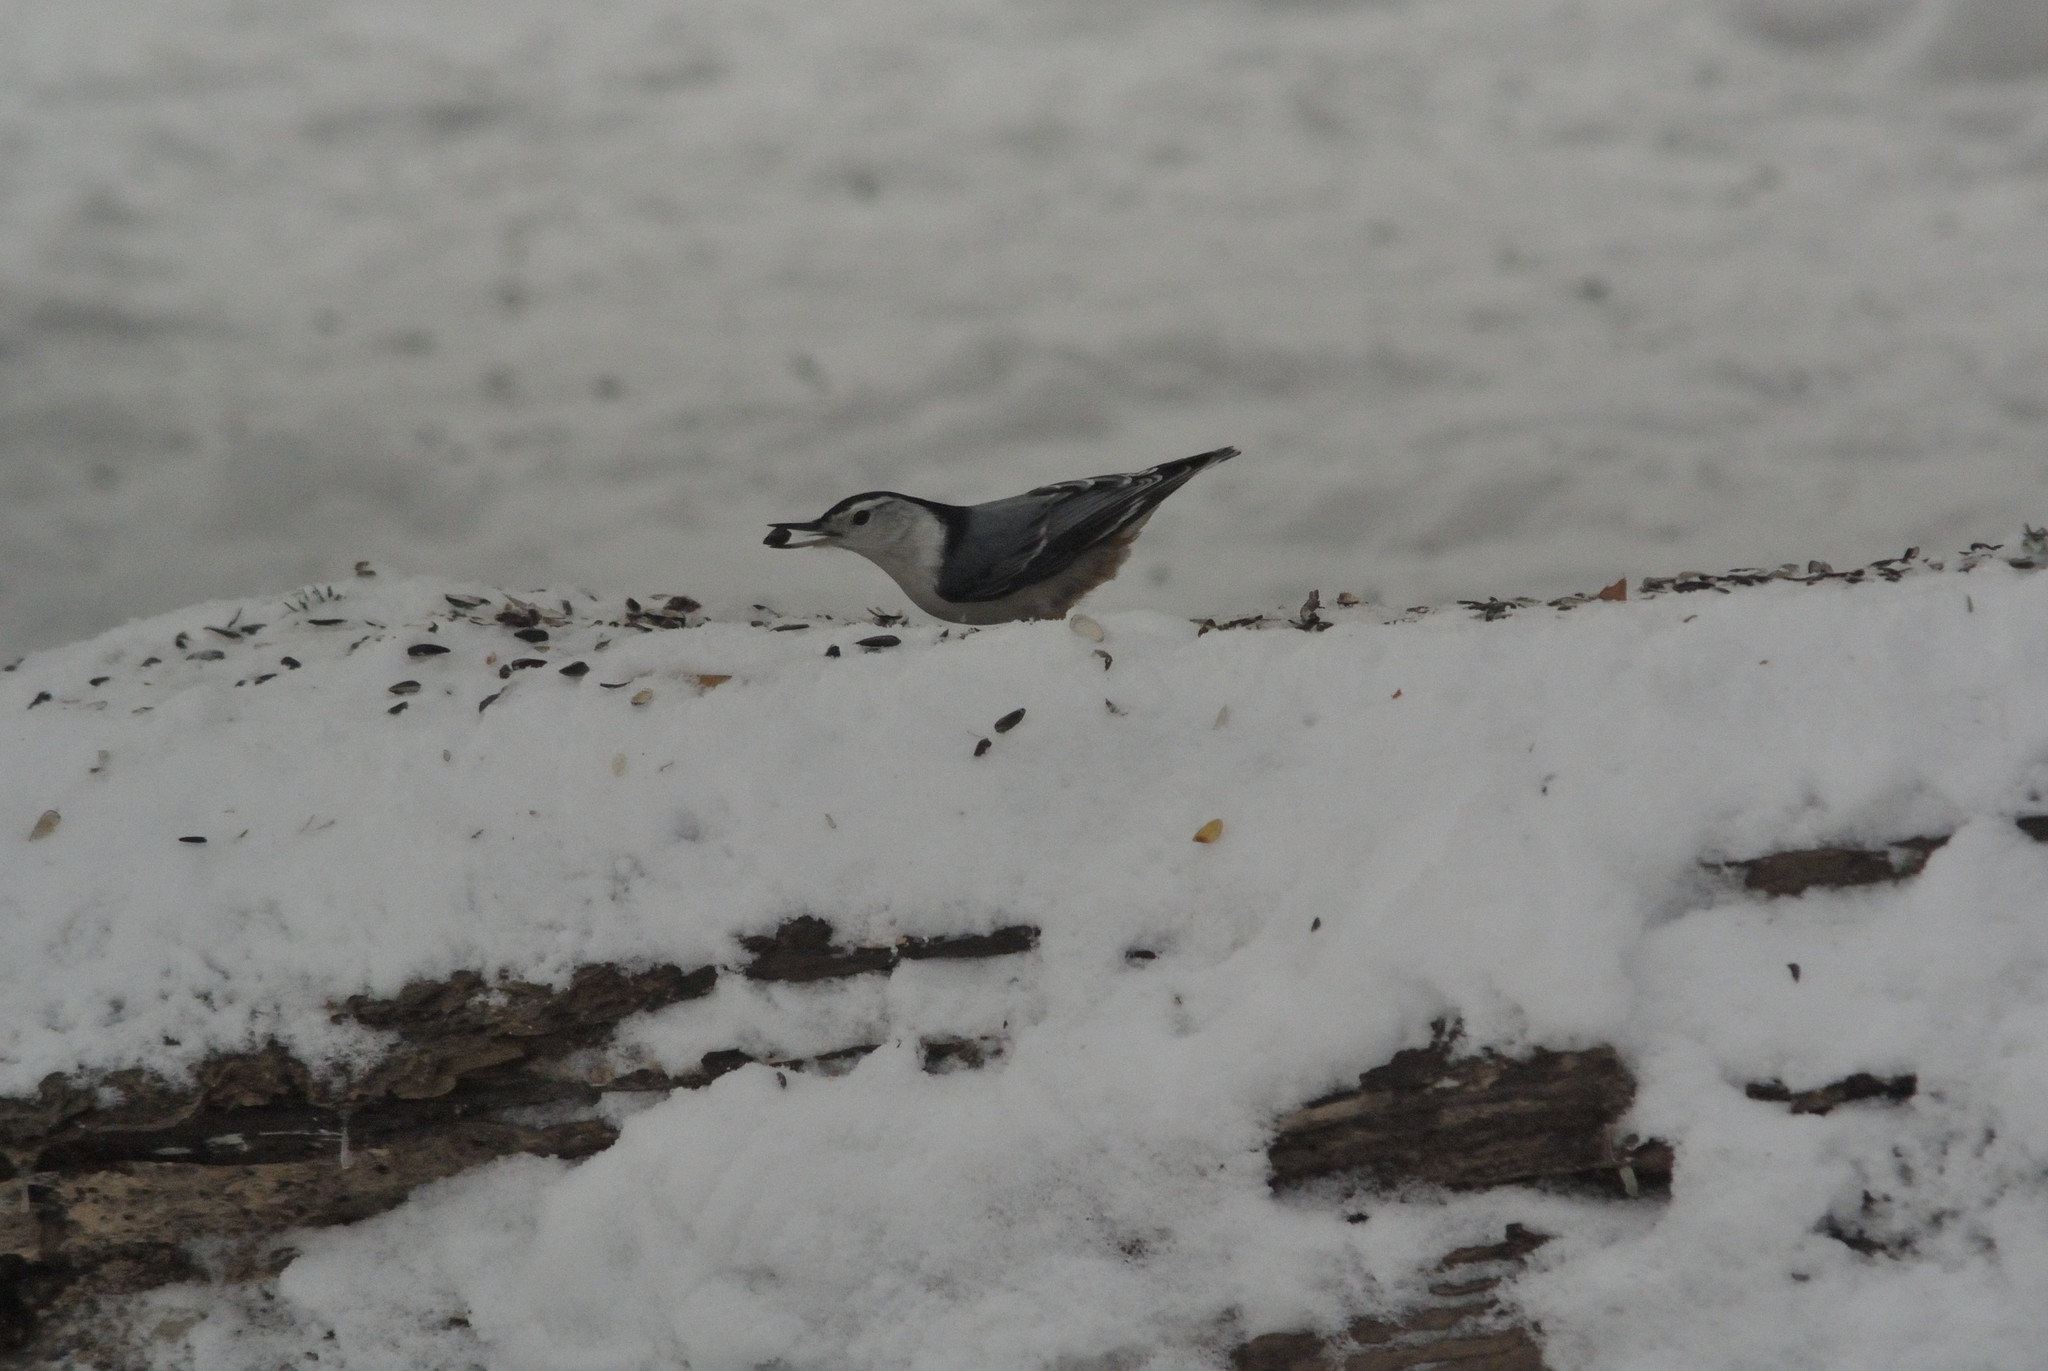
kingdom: Animalia
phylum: Chordata
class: Aves
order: Passeriformes
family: Sittidae
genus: Sitta
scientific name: Sitta carolinensis
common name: White-breasted nuthatch
